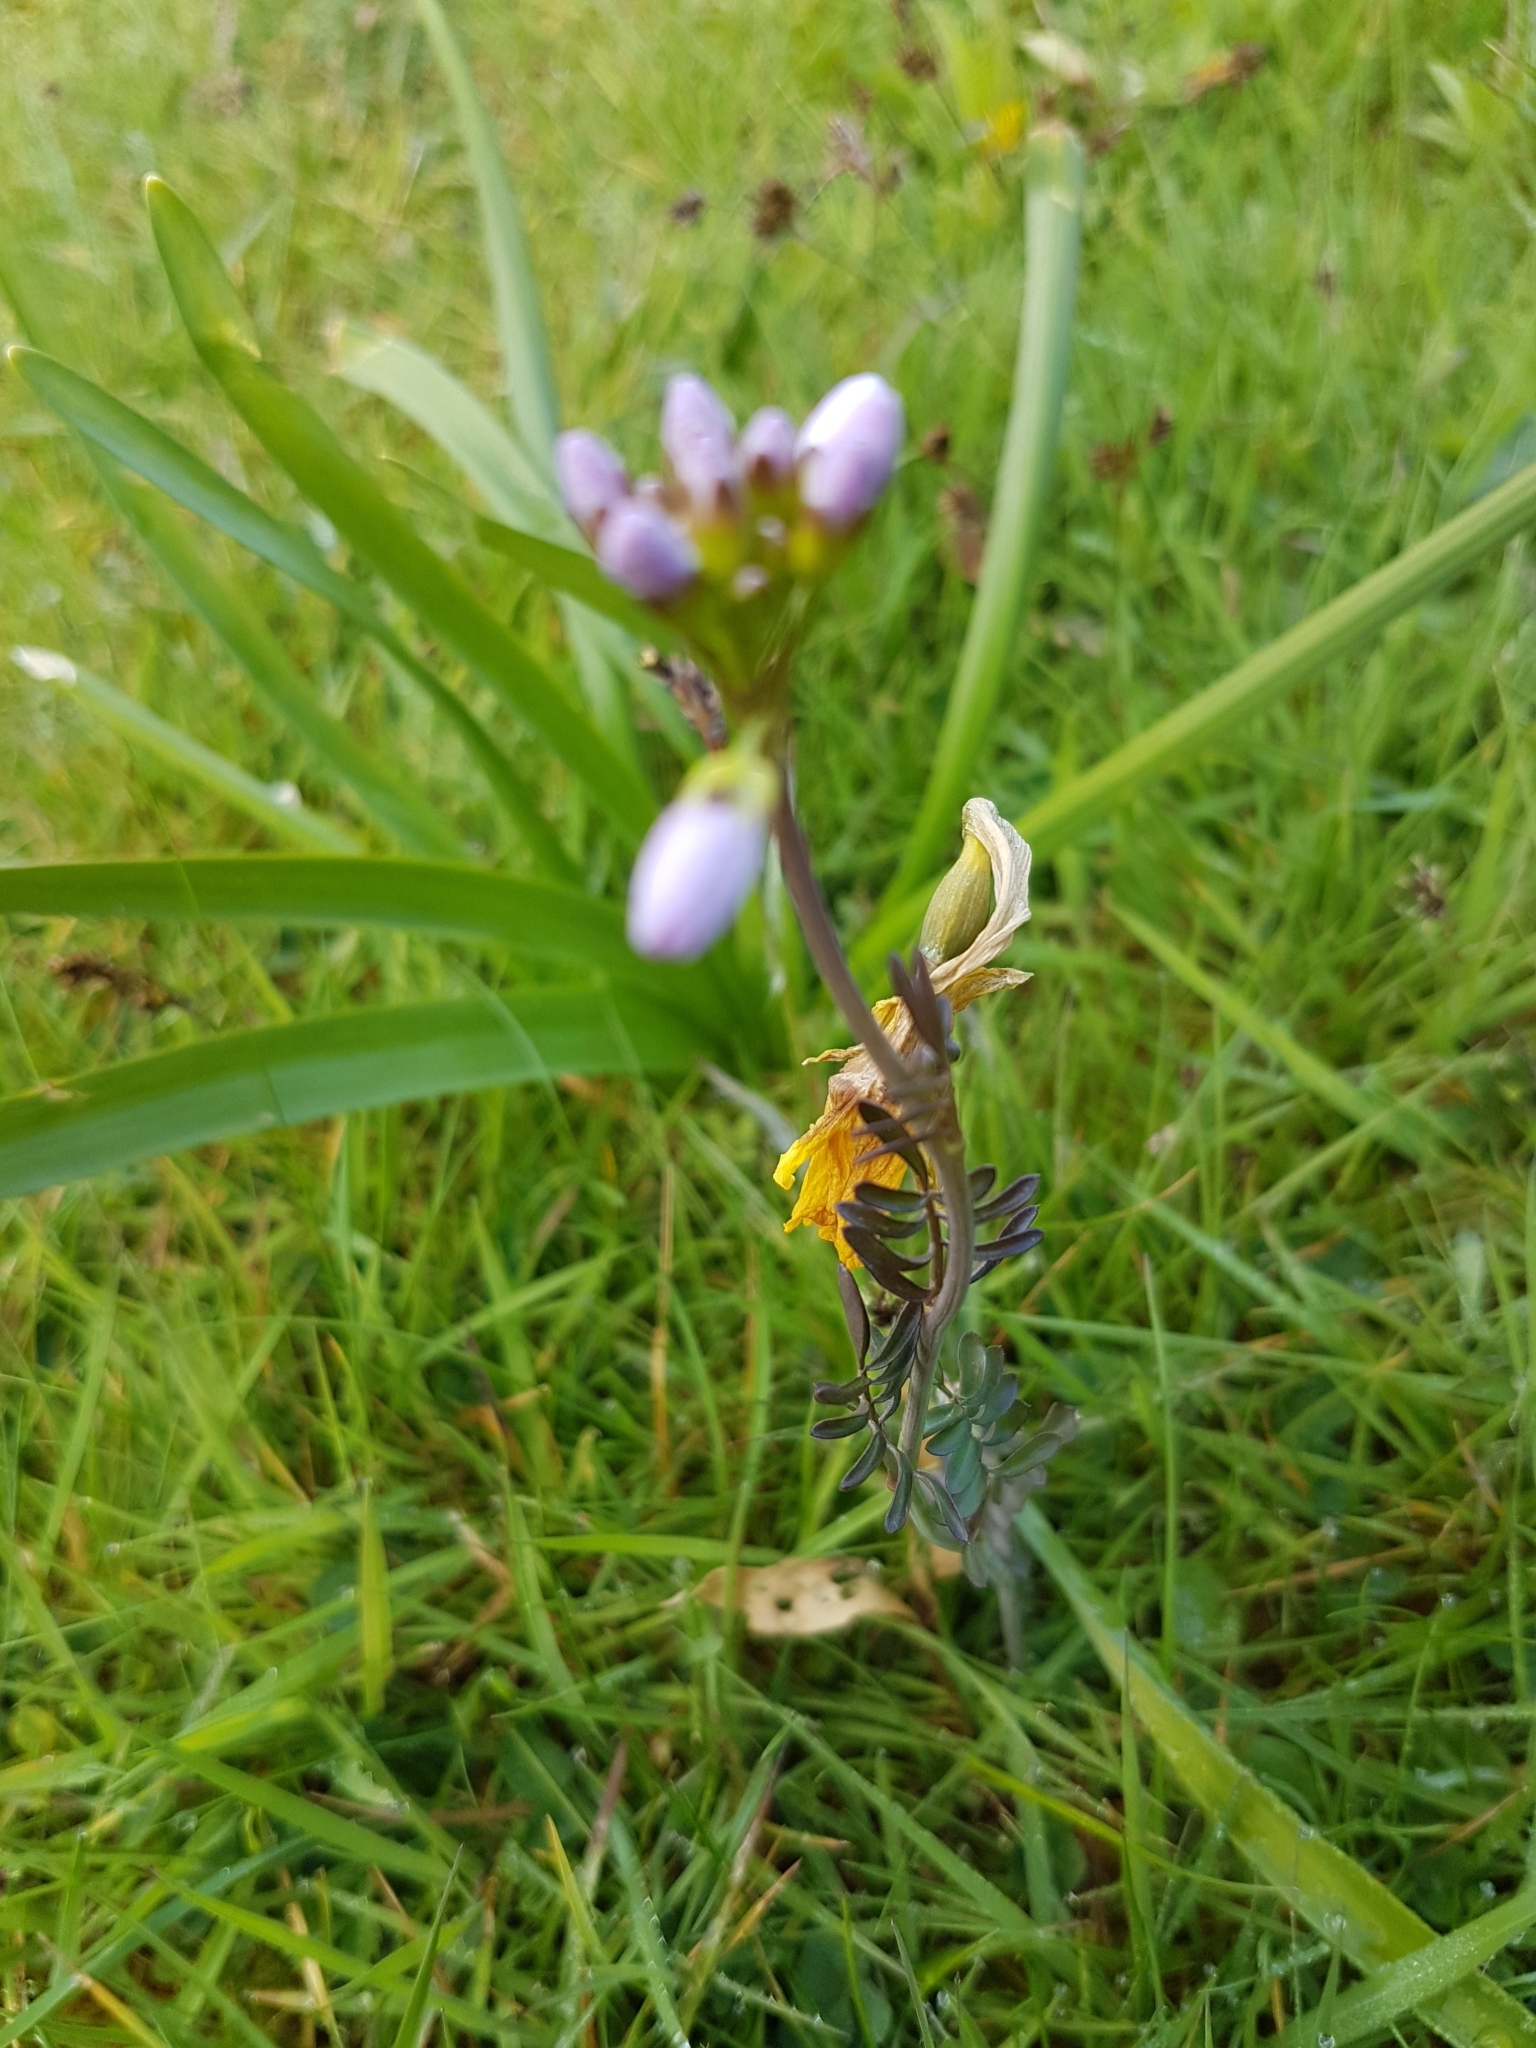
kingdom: Plantae
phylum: Tracheophyta
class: Magnoliopsida
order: Brassicales
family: Brassicaceae
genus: Cardamine
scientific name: Cardamine pratensis
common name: Cuckoo flower
